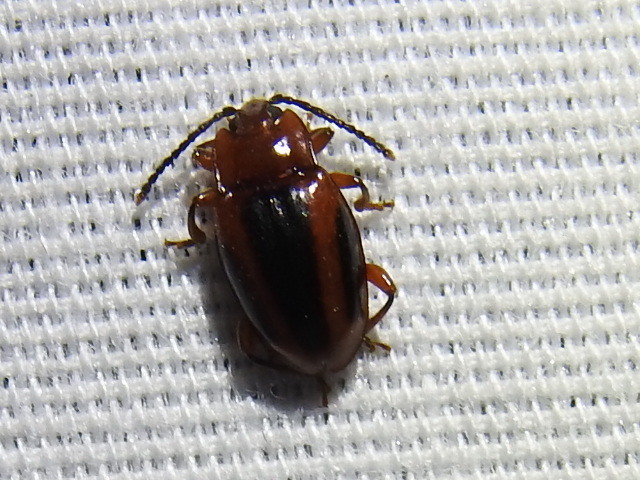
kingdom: Animalia
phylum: Arthropoda
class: Insecta
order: Coleoptera
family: Endomychidae
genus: Aphorista
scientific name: Aphorista vittata
